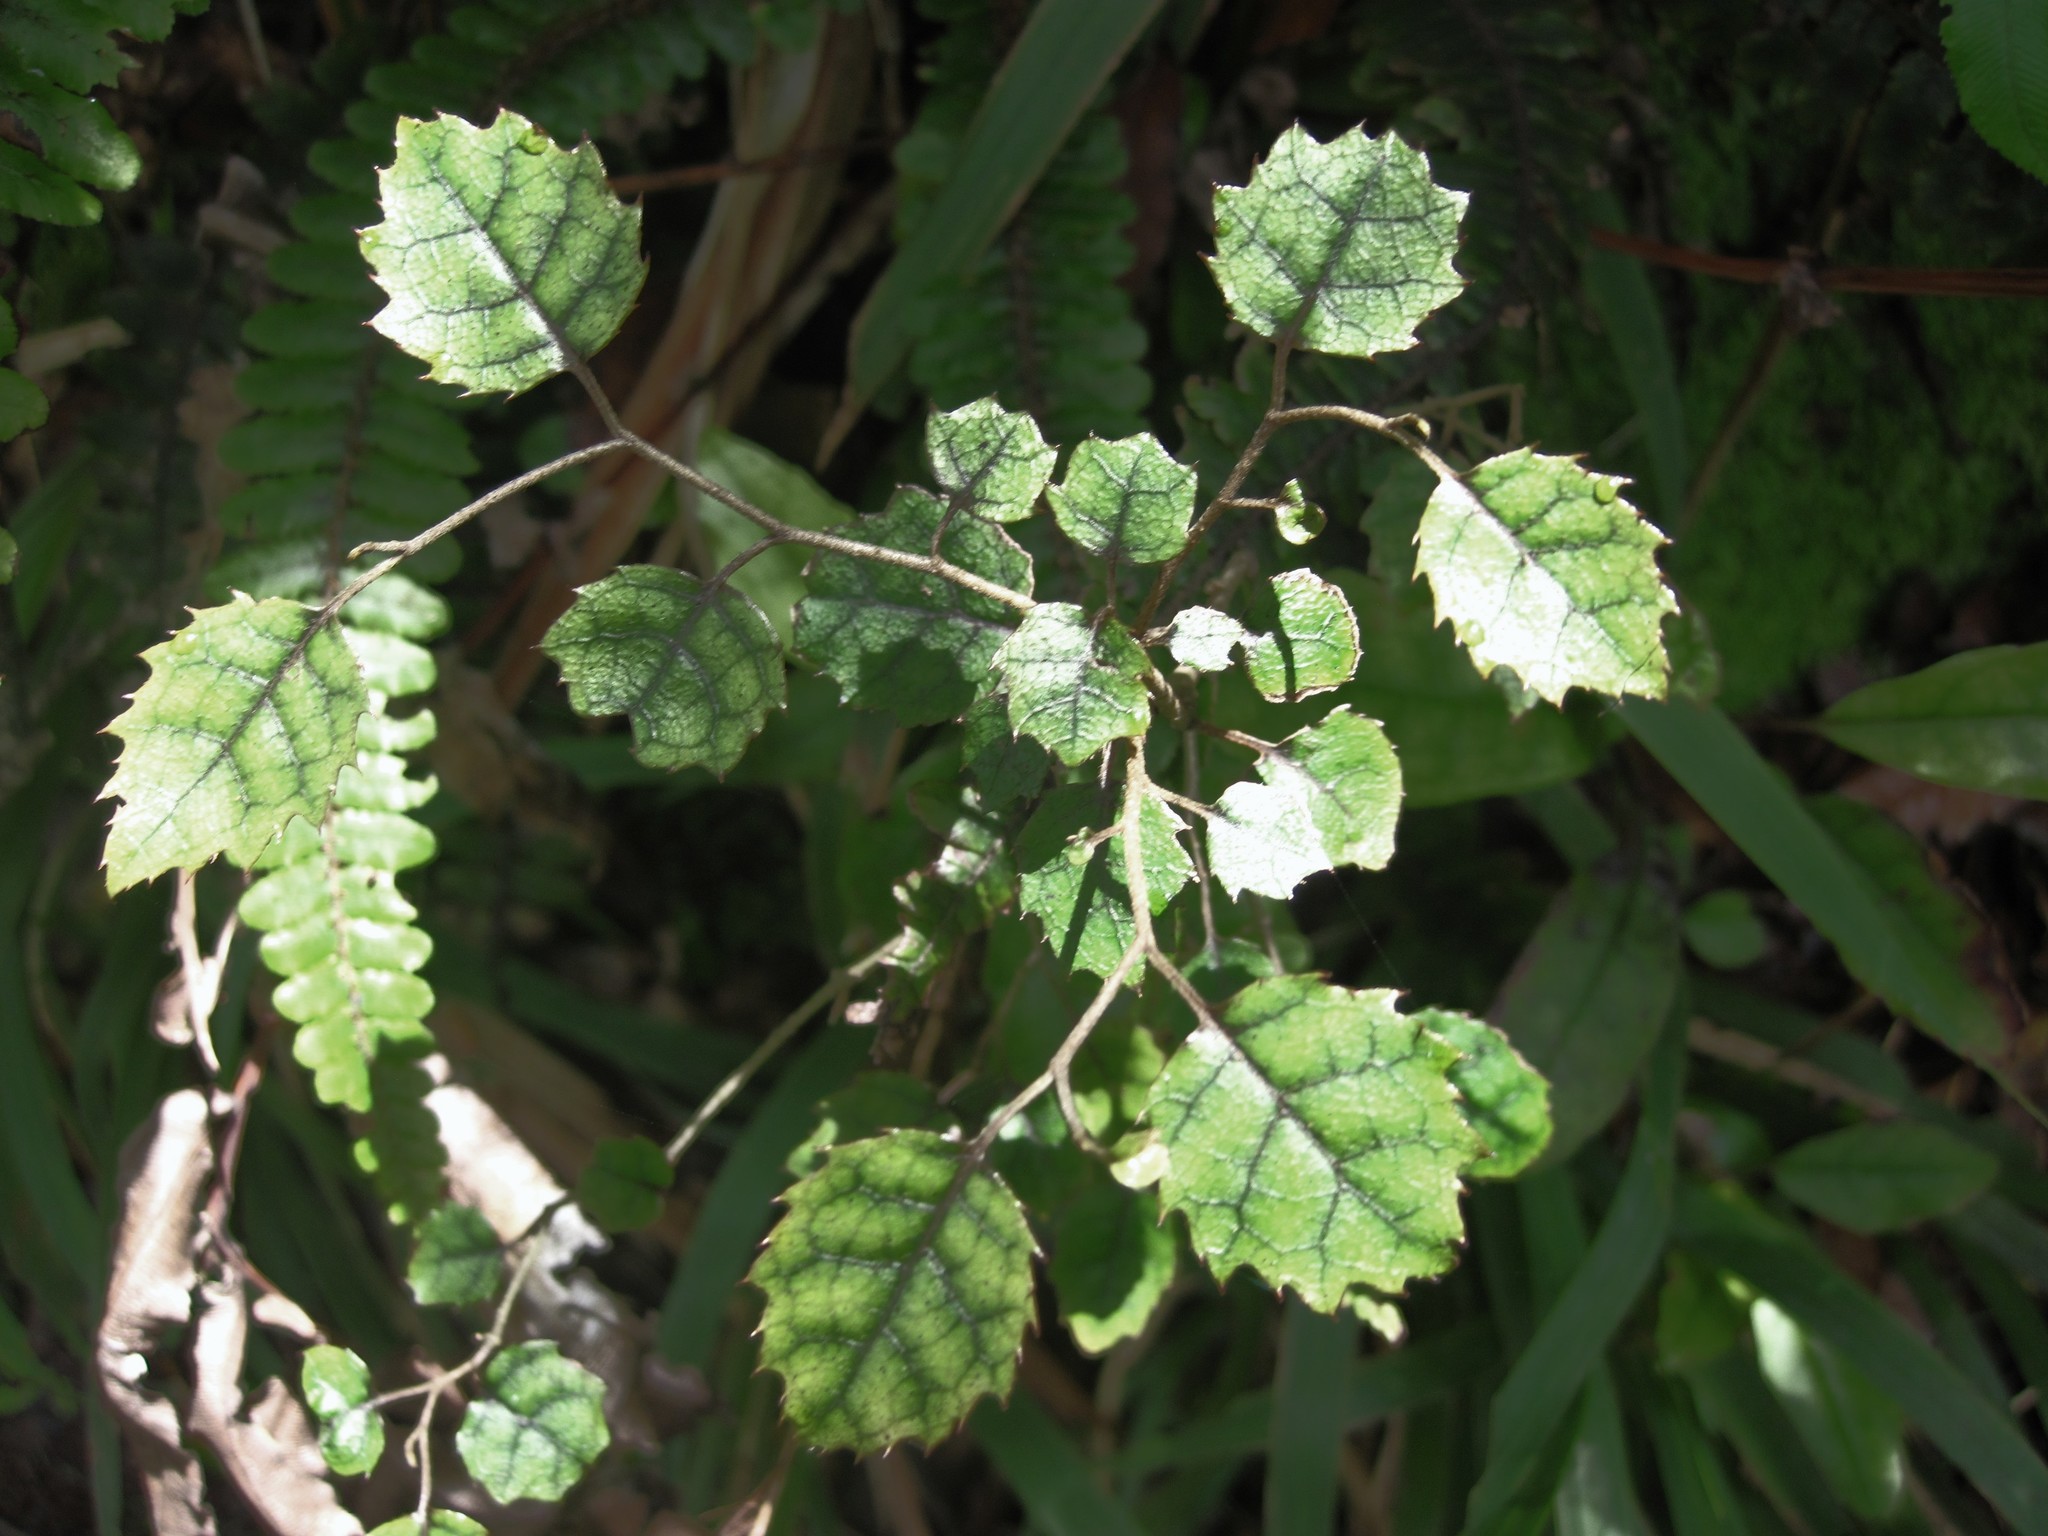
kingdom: Plantae
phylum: Tracheophyta
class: Magnoliopsida
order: Asterales
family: Rousseaceae
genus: Carpodetus
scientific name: Carpodetus serratus
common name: White mapau
